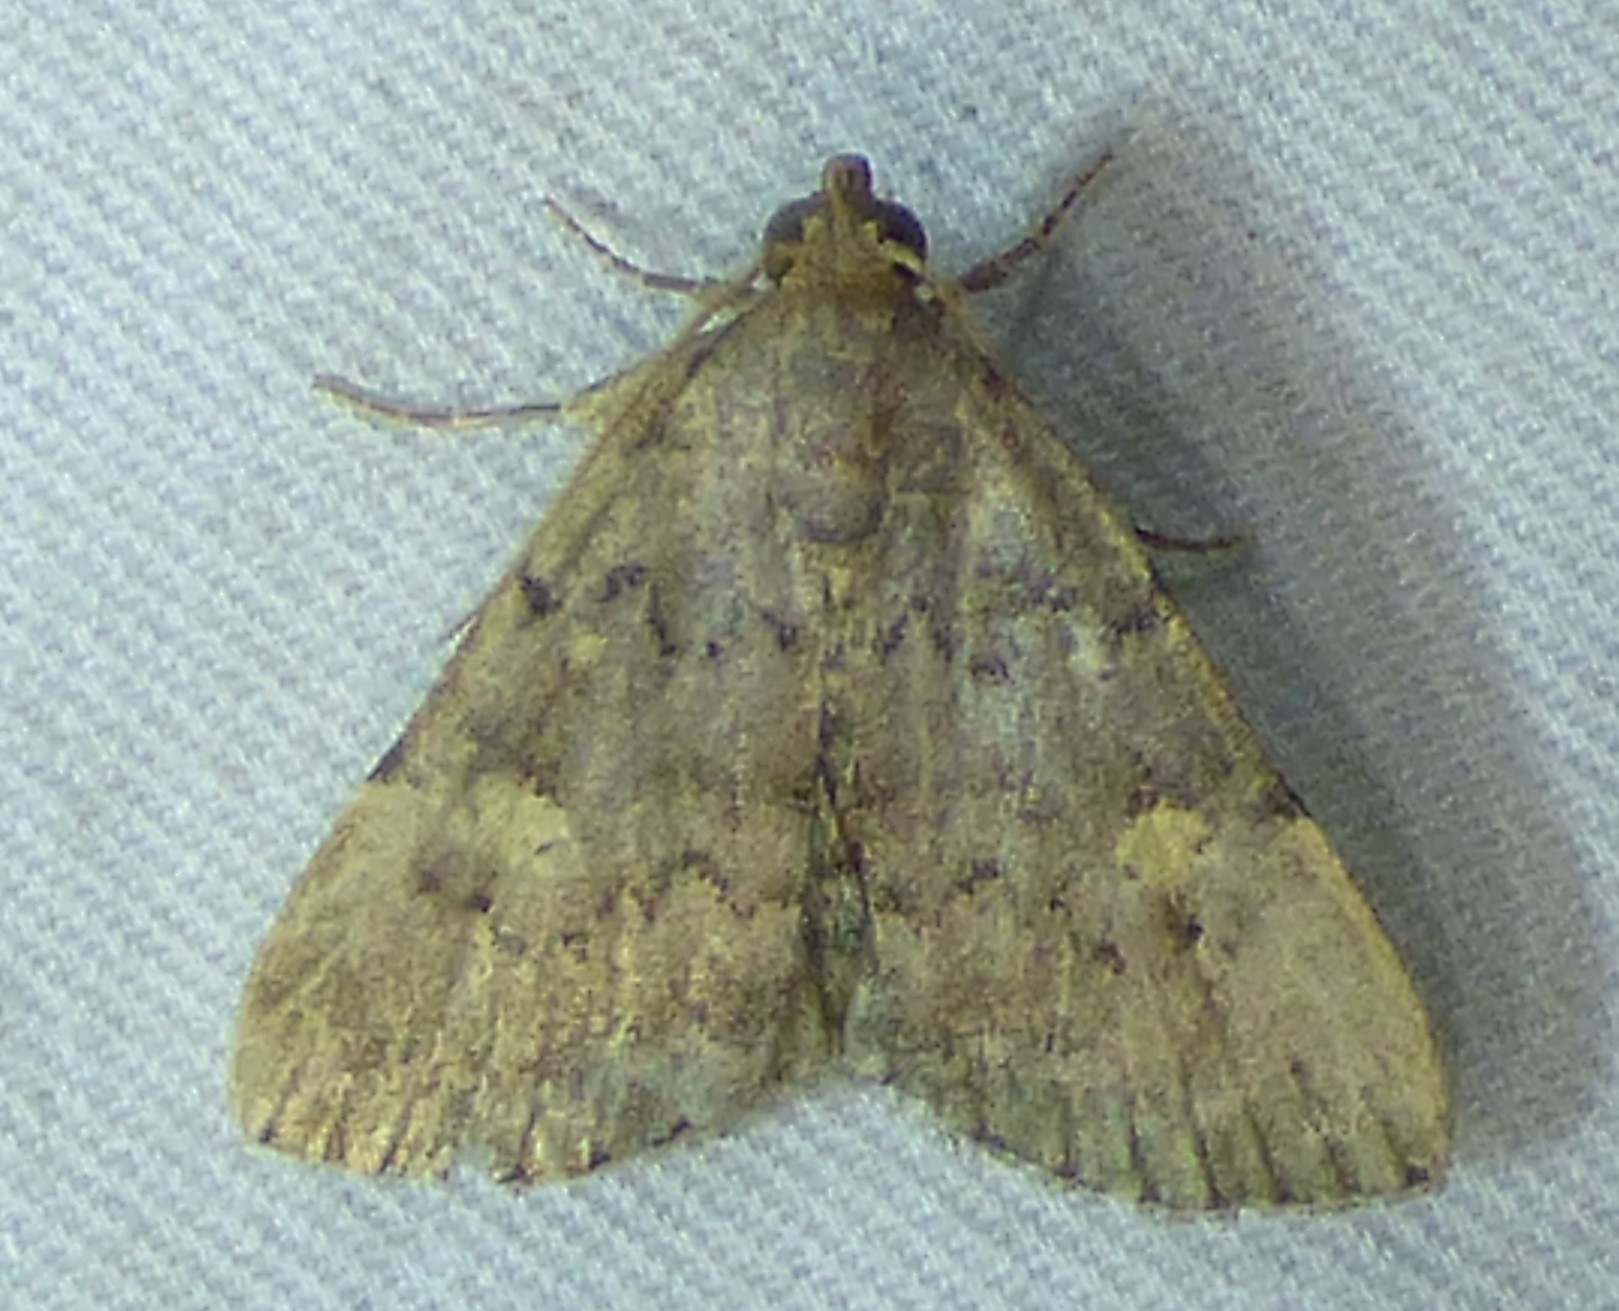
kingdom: Animalia
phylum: Arthropoda
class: Insecta
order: Lepidoptera
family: Erebidae
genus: Idia
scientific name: Idia aemula
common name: Common idia moth
